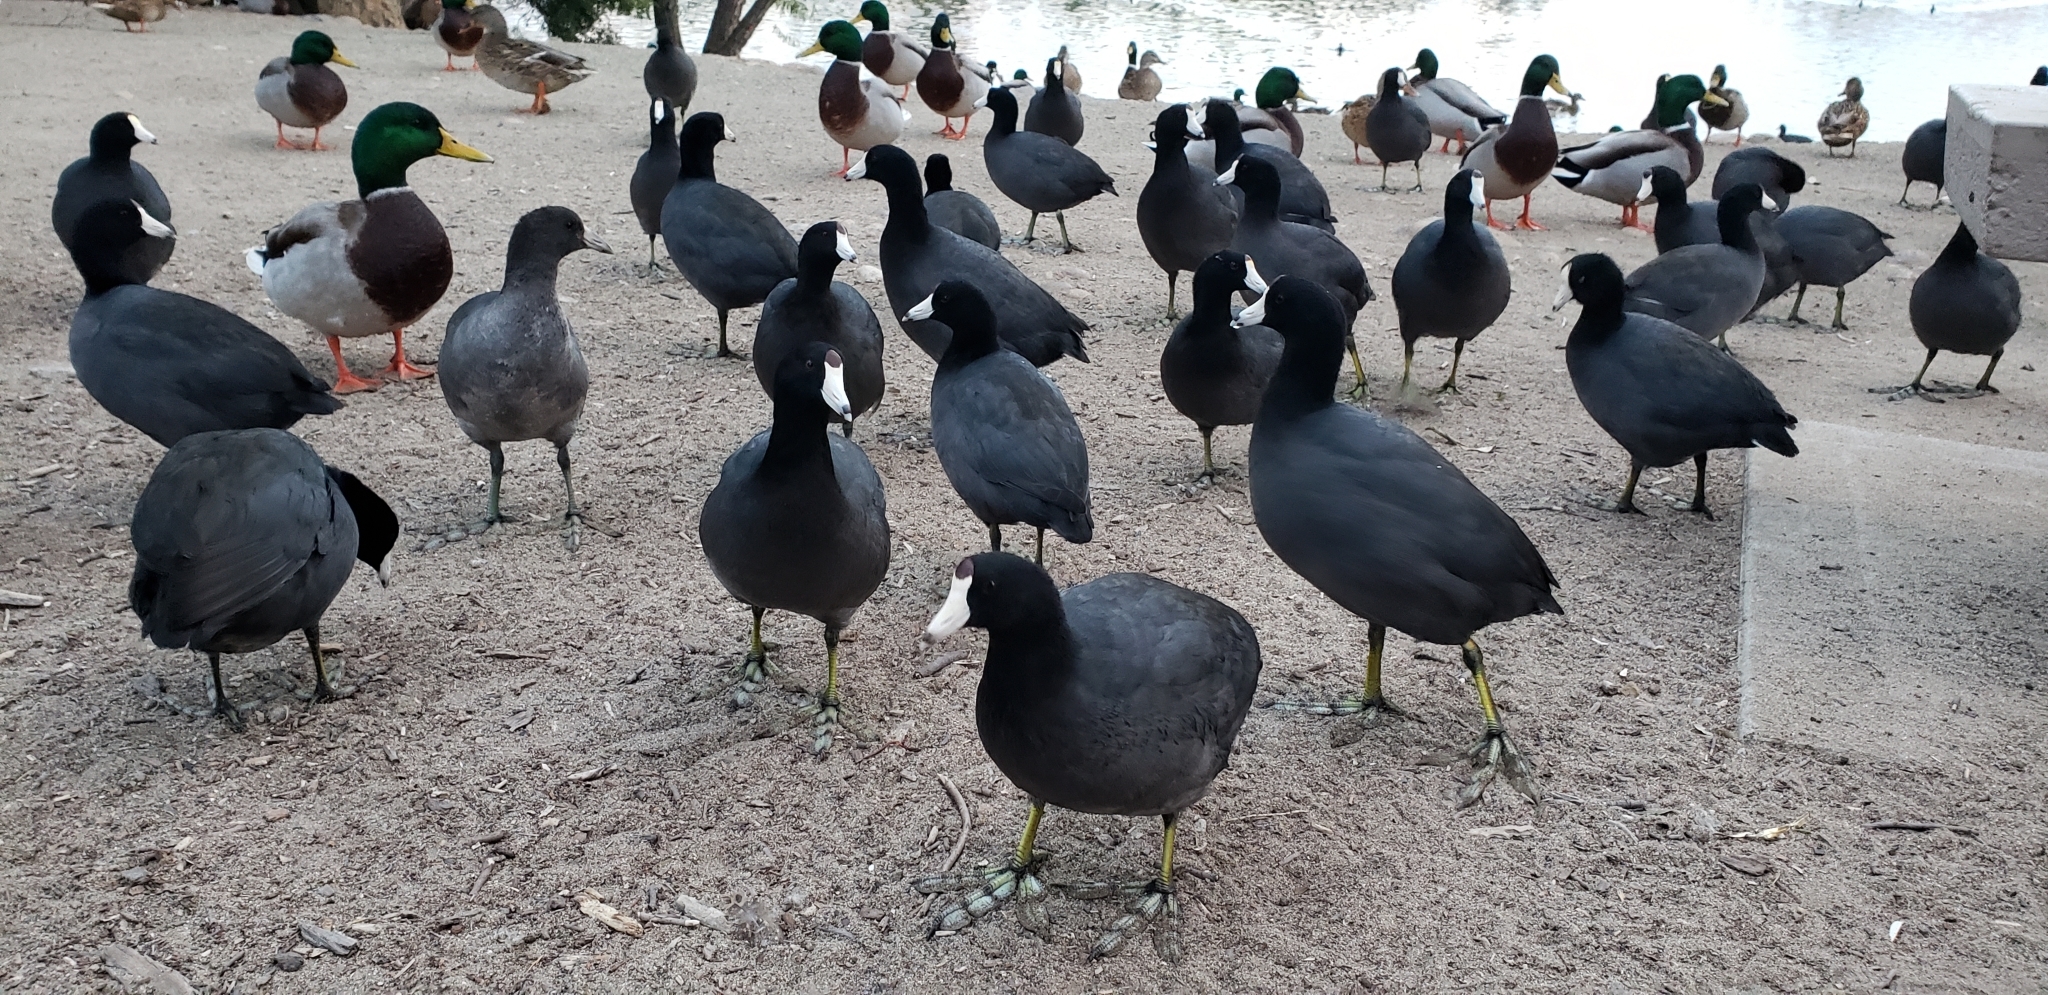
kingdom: Animalia
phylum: Chordata
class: Aves
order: Gruiformes
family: Rallidae
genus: Fulica
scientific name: Fulica americana
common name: American coot
